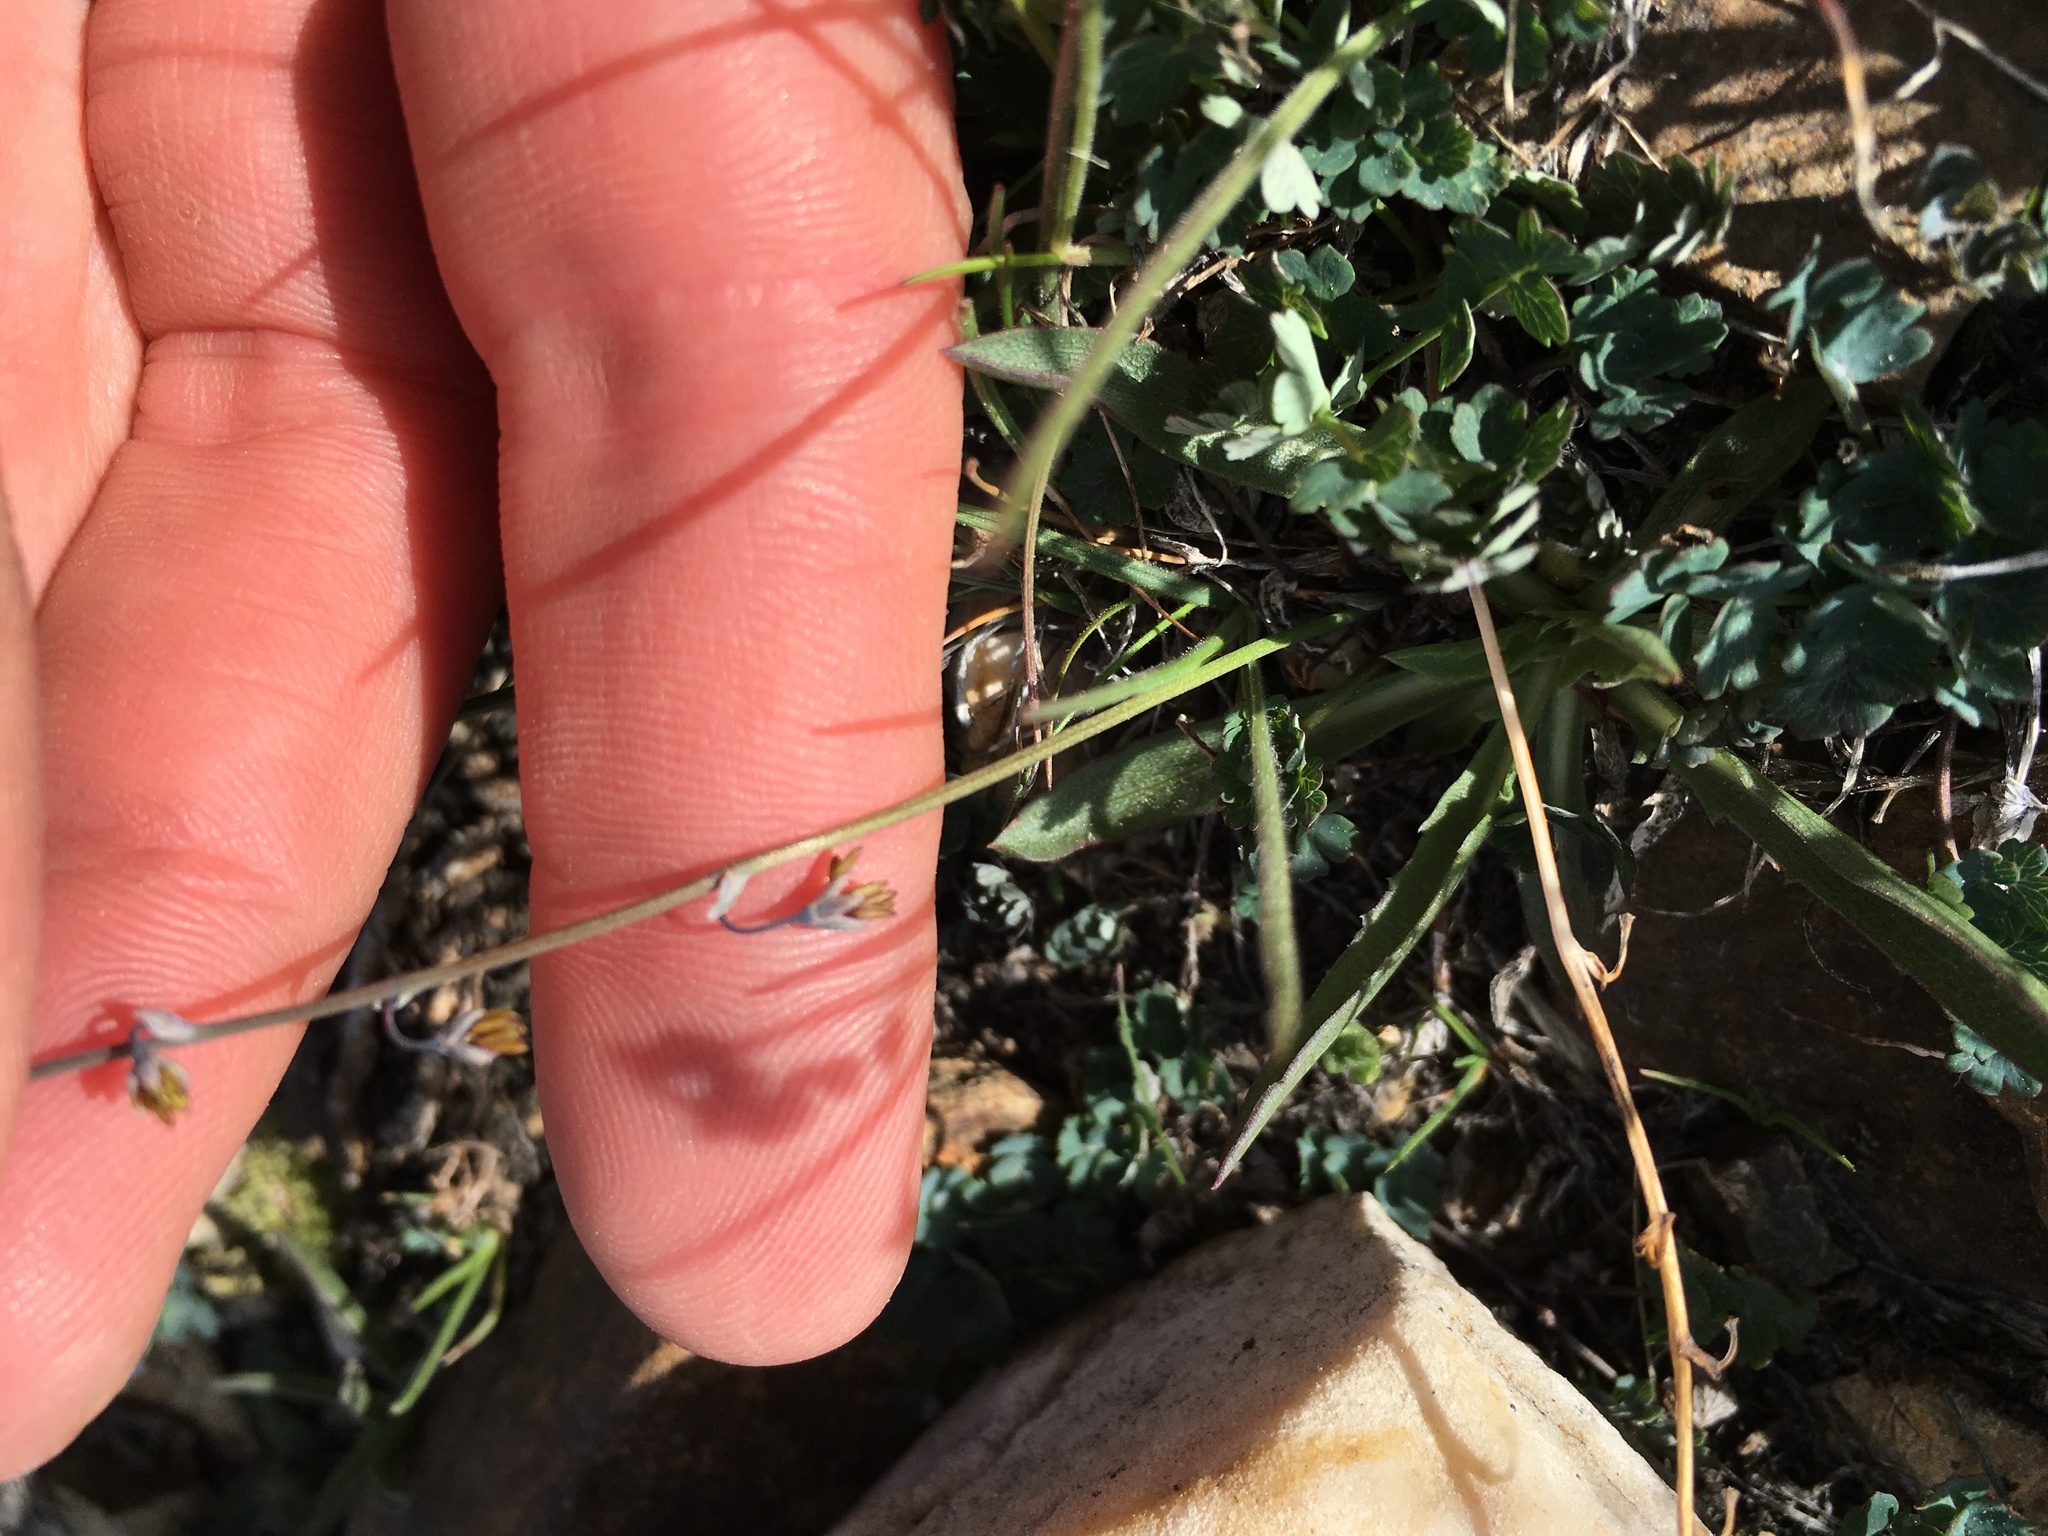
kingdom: Plantae
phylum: Tracheophyta
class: Magnoliopsida
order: Ranunculales
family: Ranunculaceae
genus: Thalictrum
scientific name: Thalictrum alpinum
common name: Alpine meadow-rue
